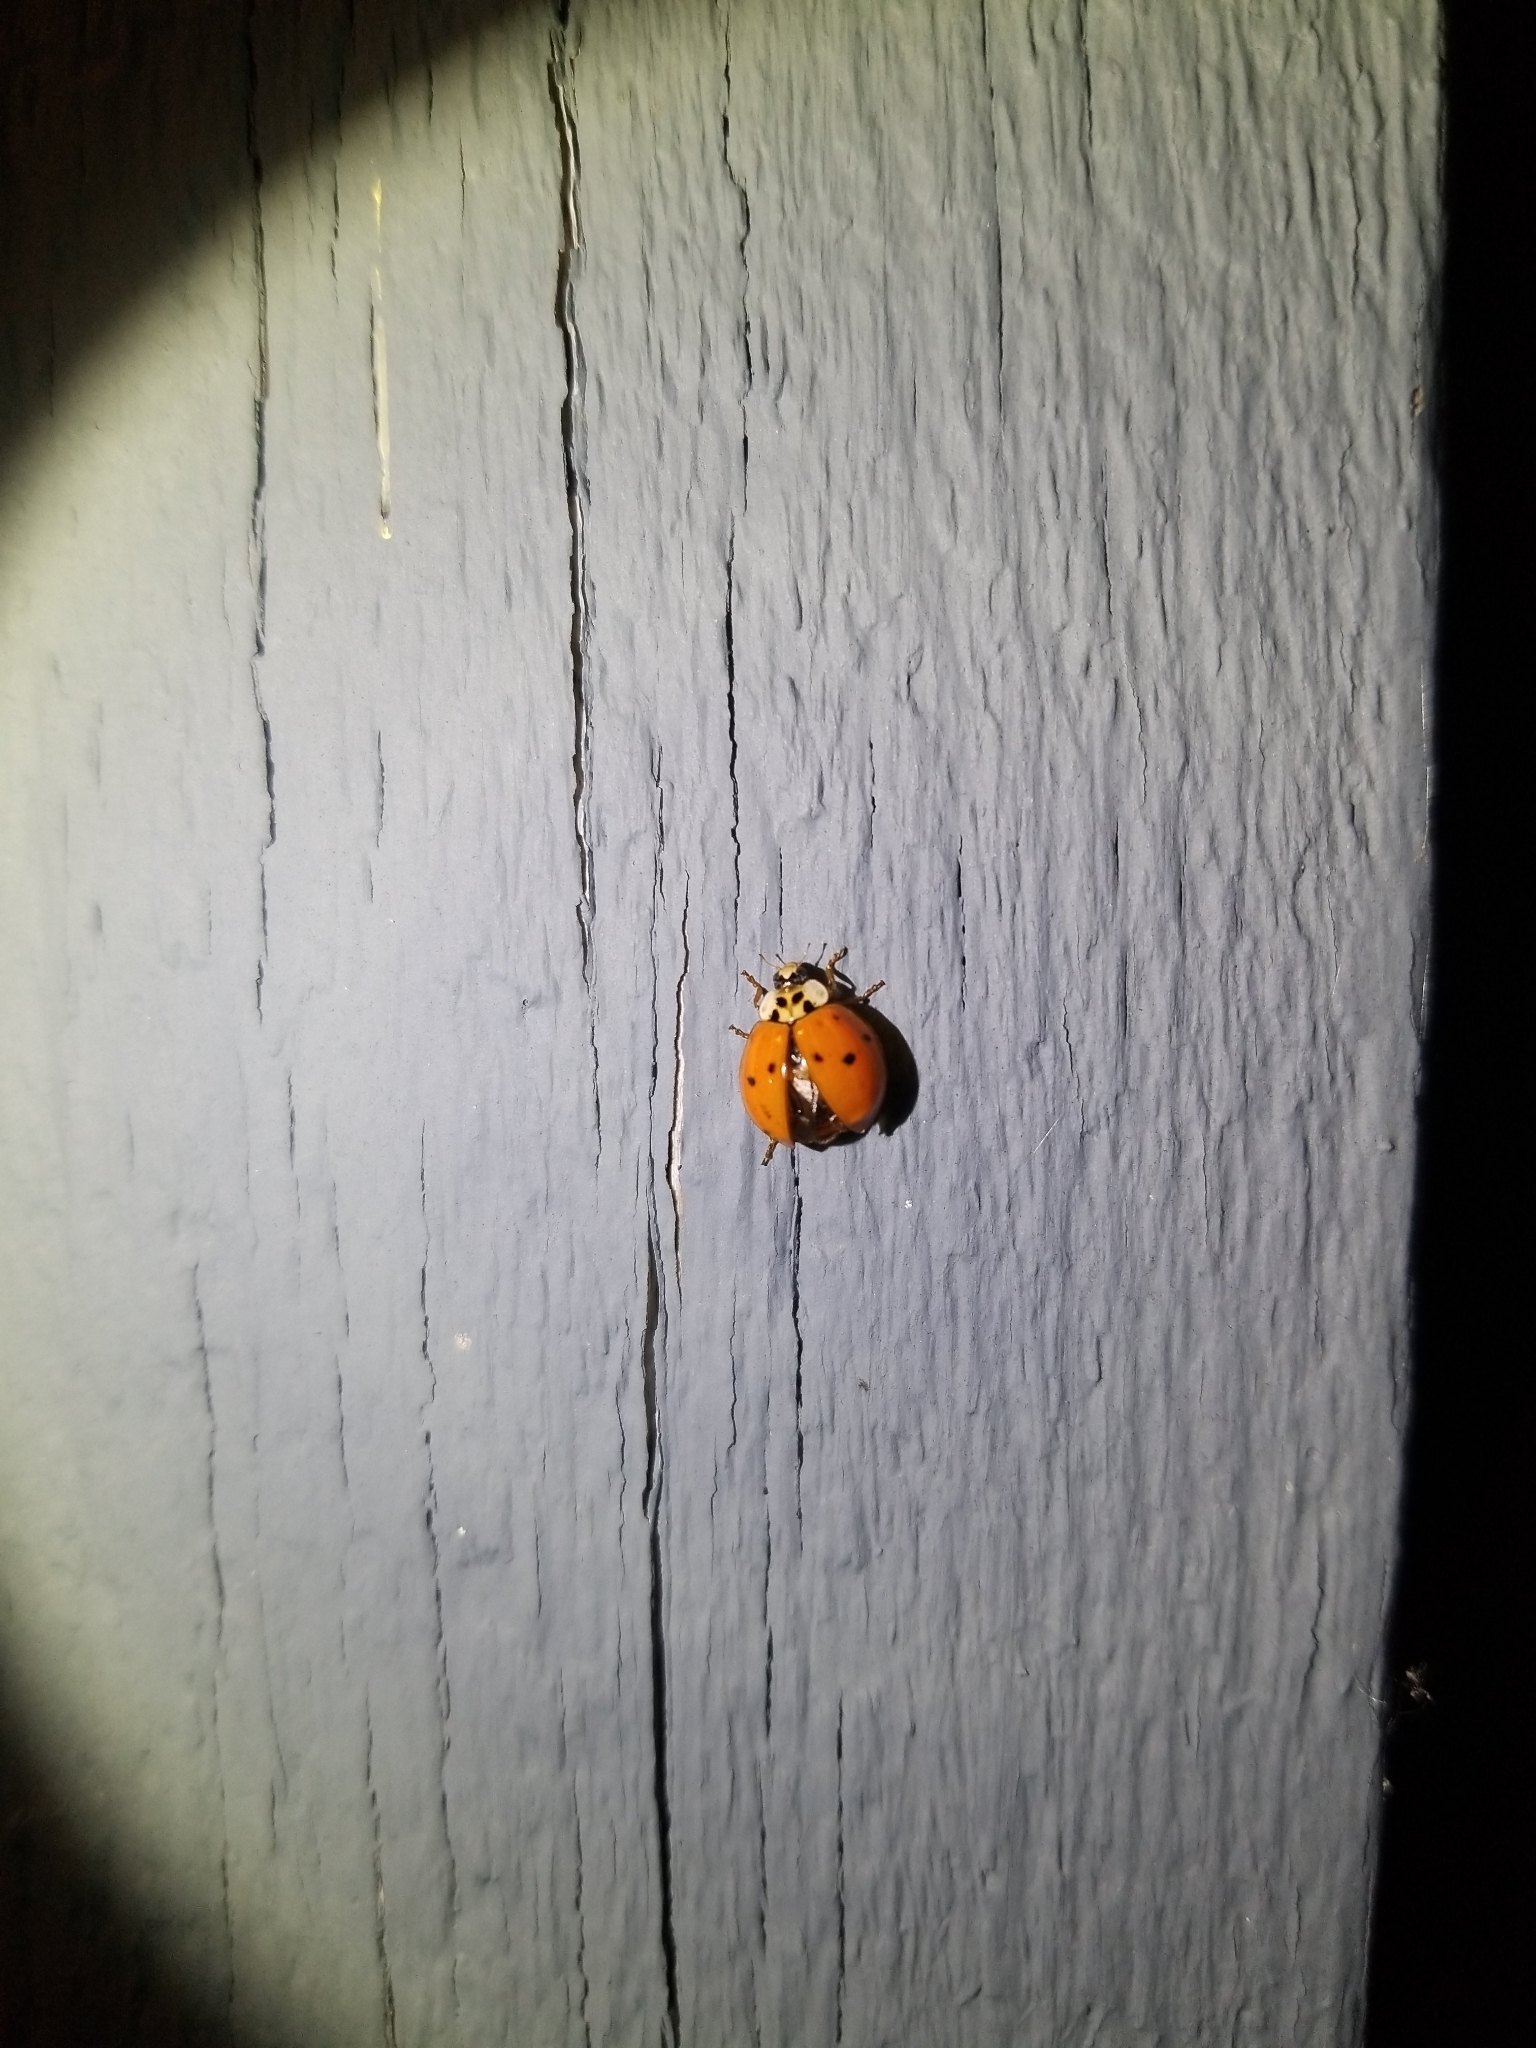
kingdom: Animalia
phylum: Arthropoda
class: Insecta
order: Coleoptera
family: Coccinellidae
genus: Harmonia
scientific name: Harmonia axyridis
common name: Harlequin ladybird
